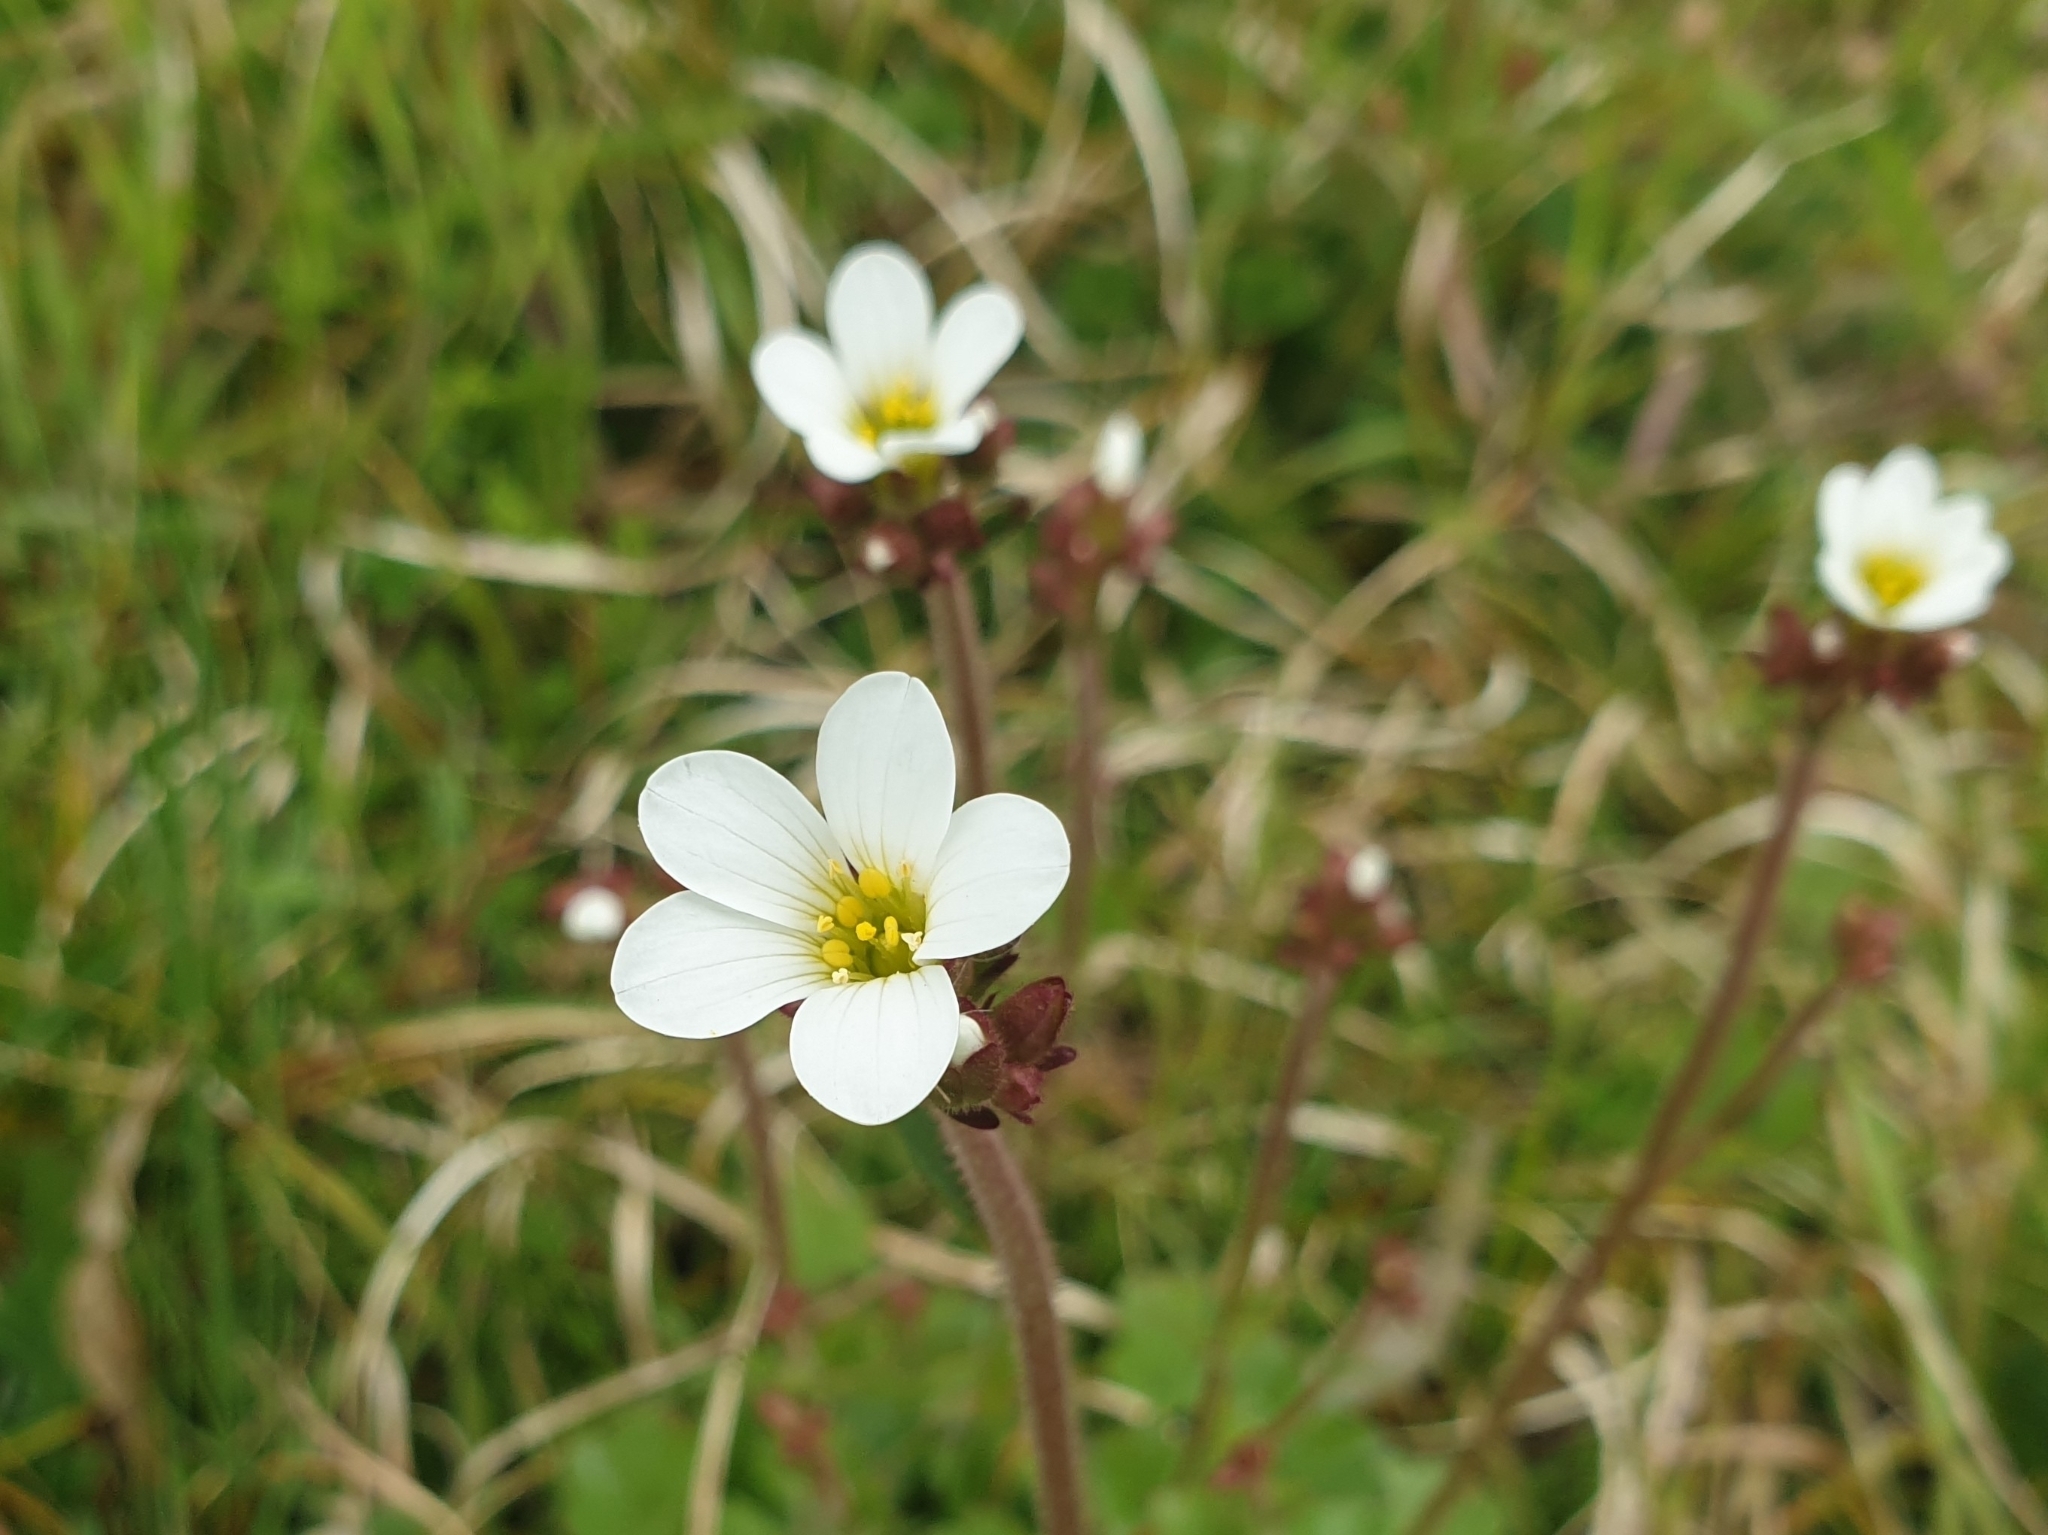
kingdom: Plantae
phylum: Tracheophyta
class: Magnoliopsida
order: Saxifragales
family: Saxifragaceae
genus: Saxifraga
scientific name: Saxifraga granulata
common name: Meadow saxifrage
